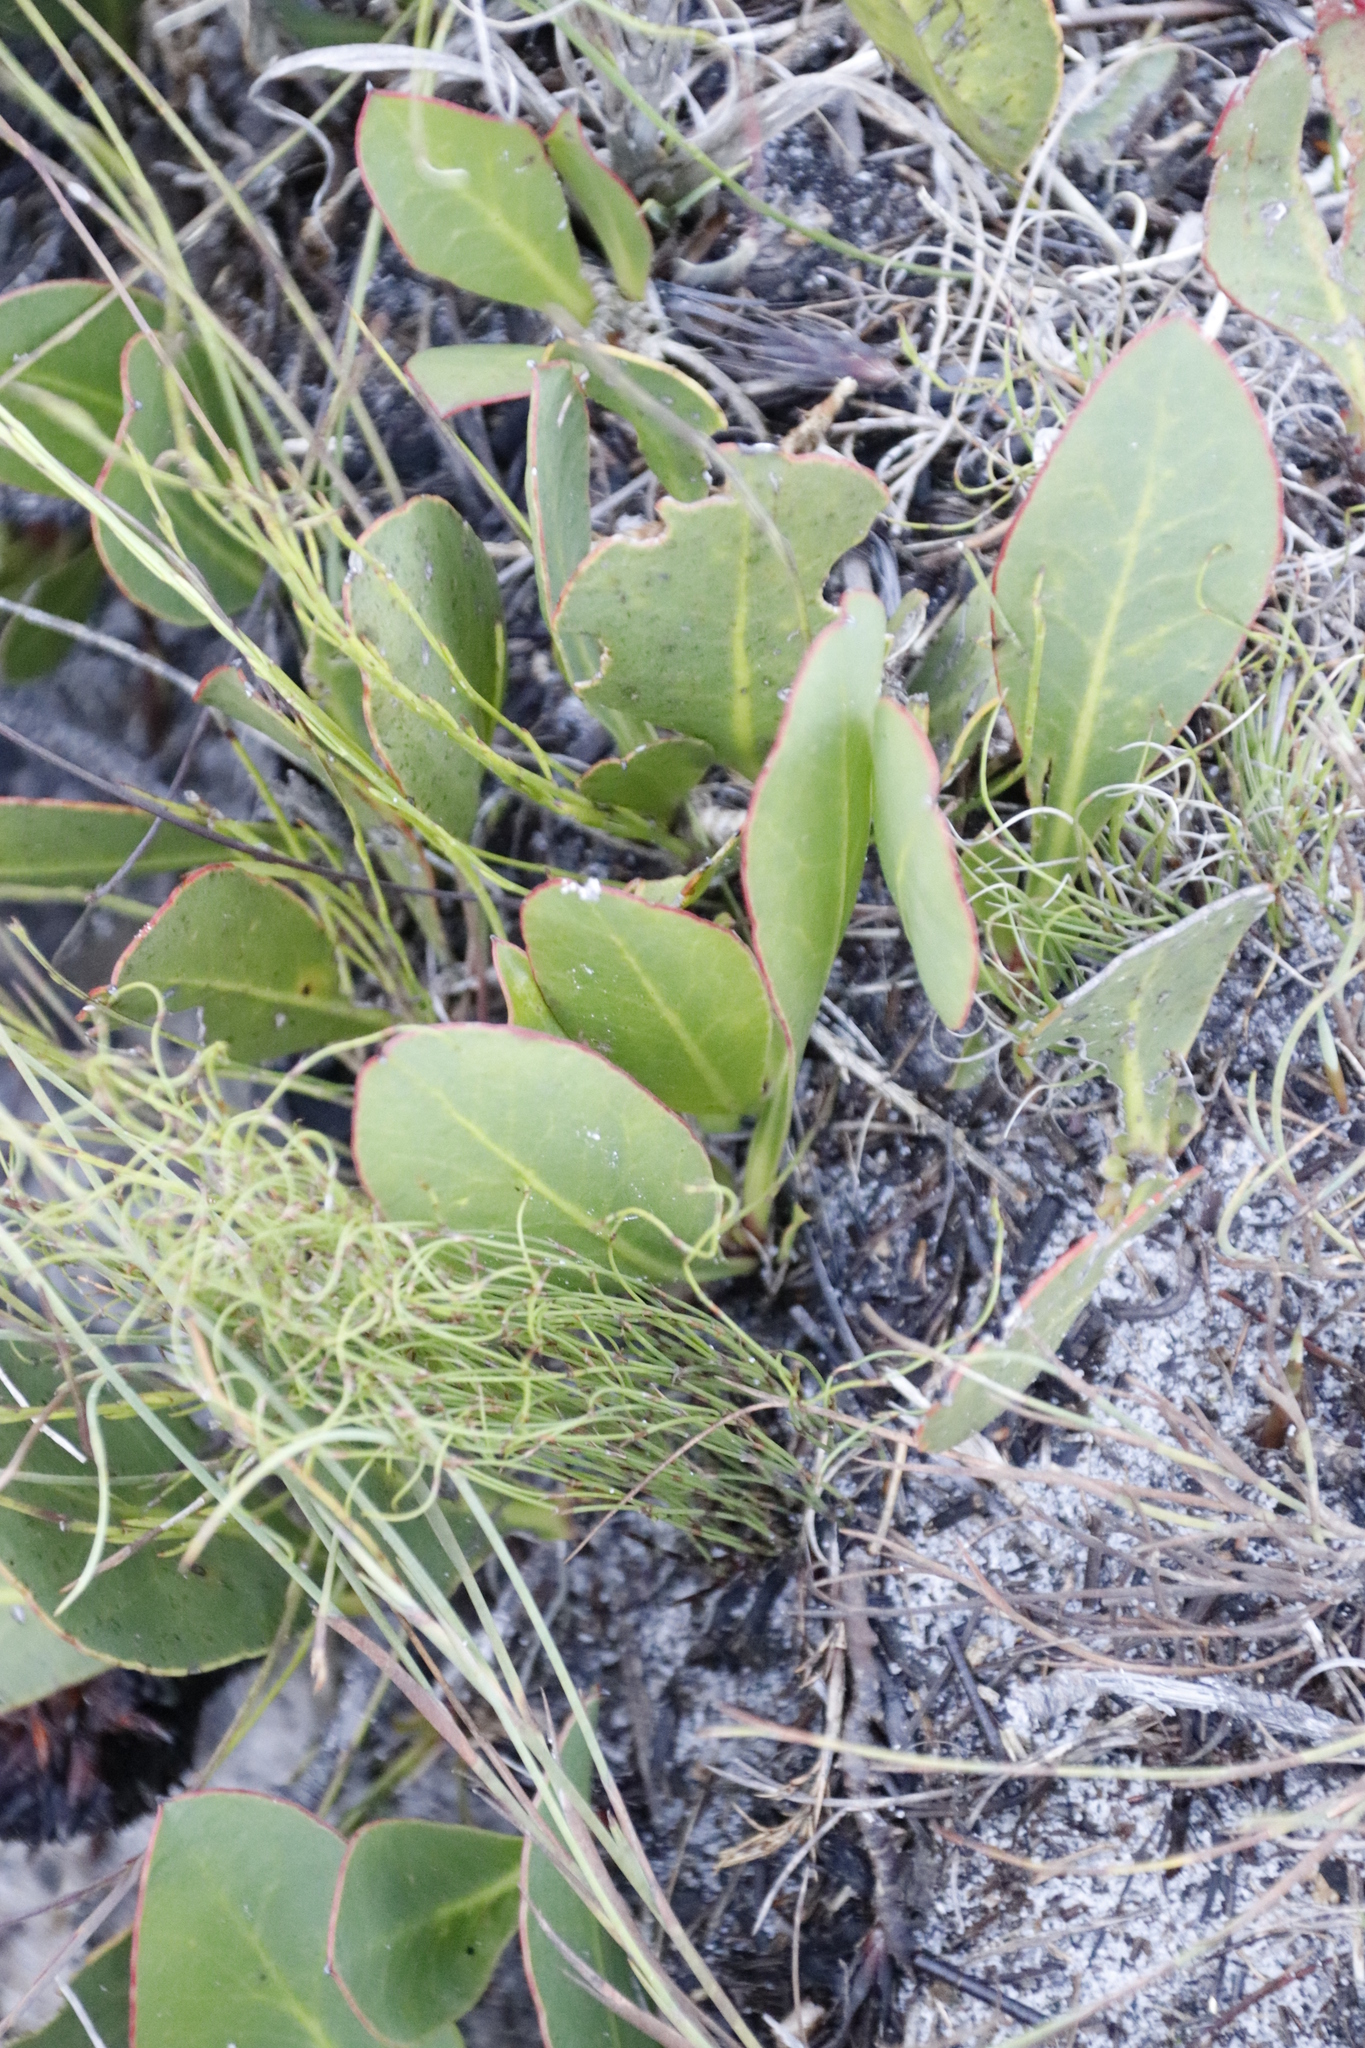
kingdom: Plantae
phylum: Tracheophyta
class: Magnoliopsida
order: Proteales
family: Proteaceae
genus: Protea
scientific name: Protea acaulos
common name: Common ground sugarbush
